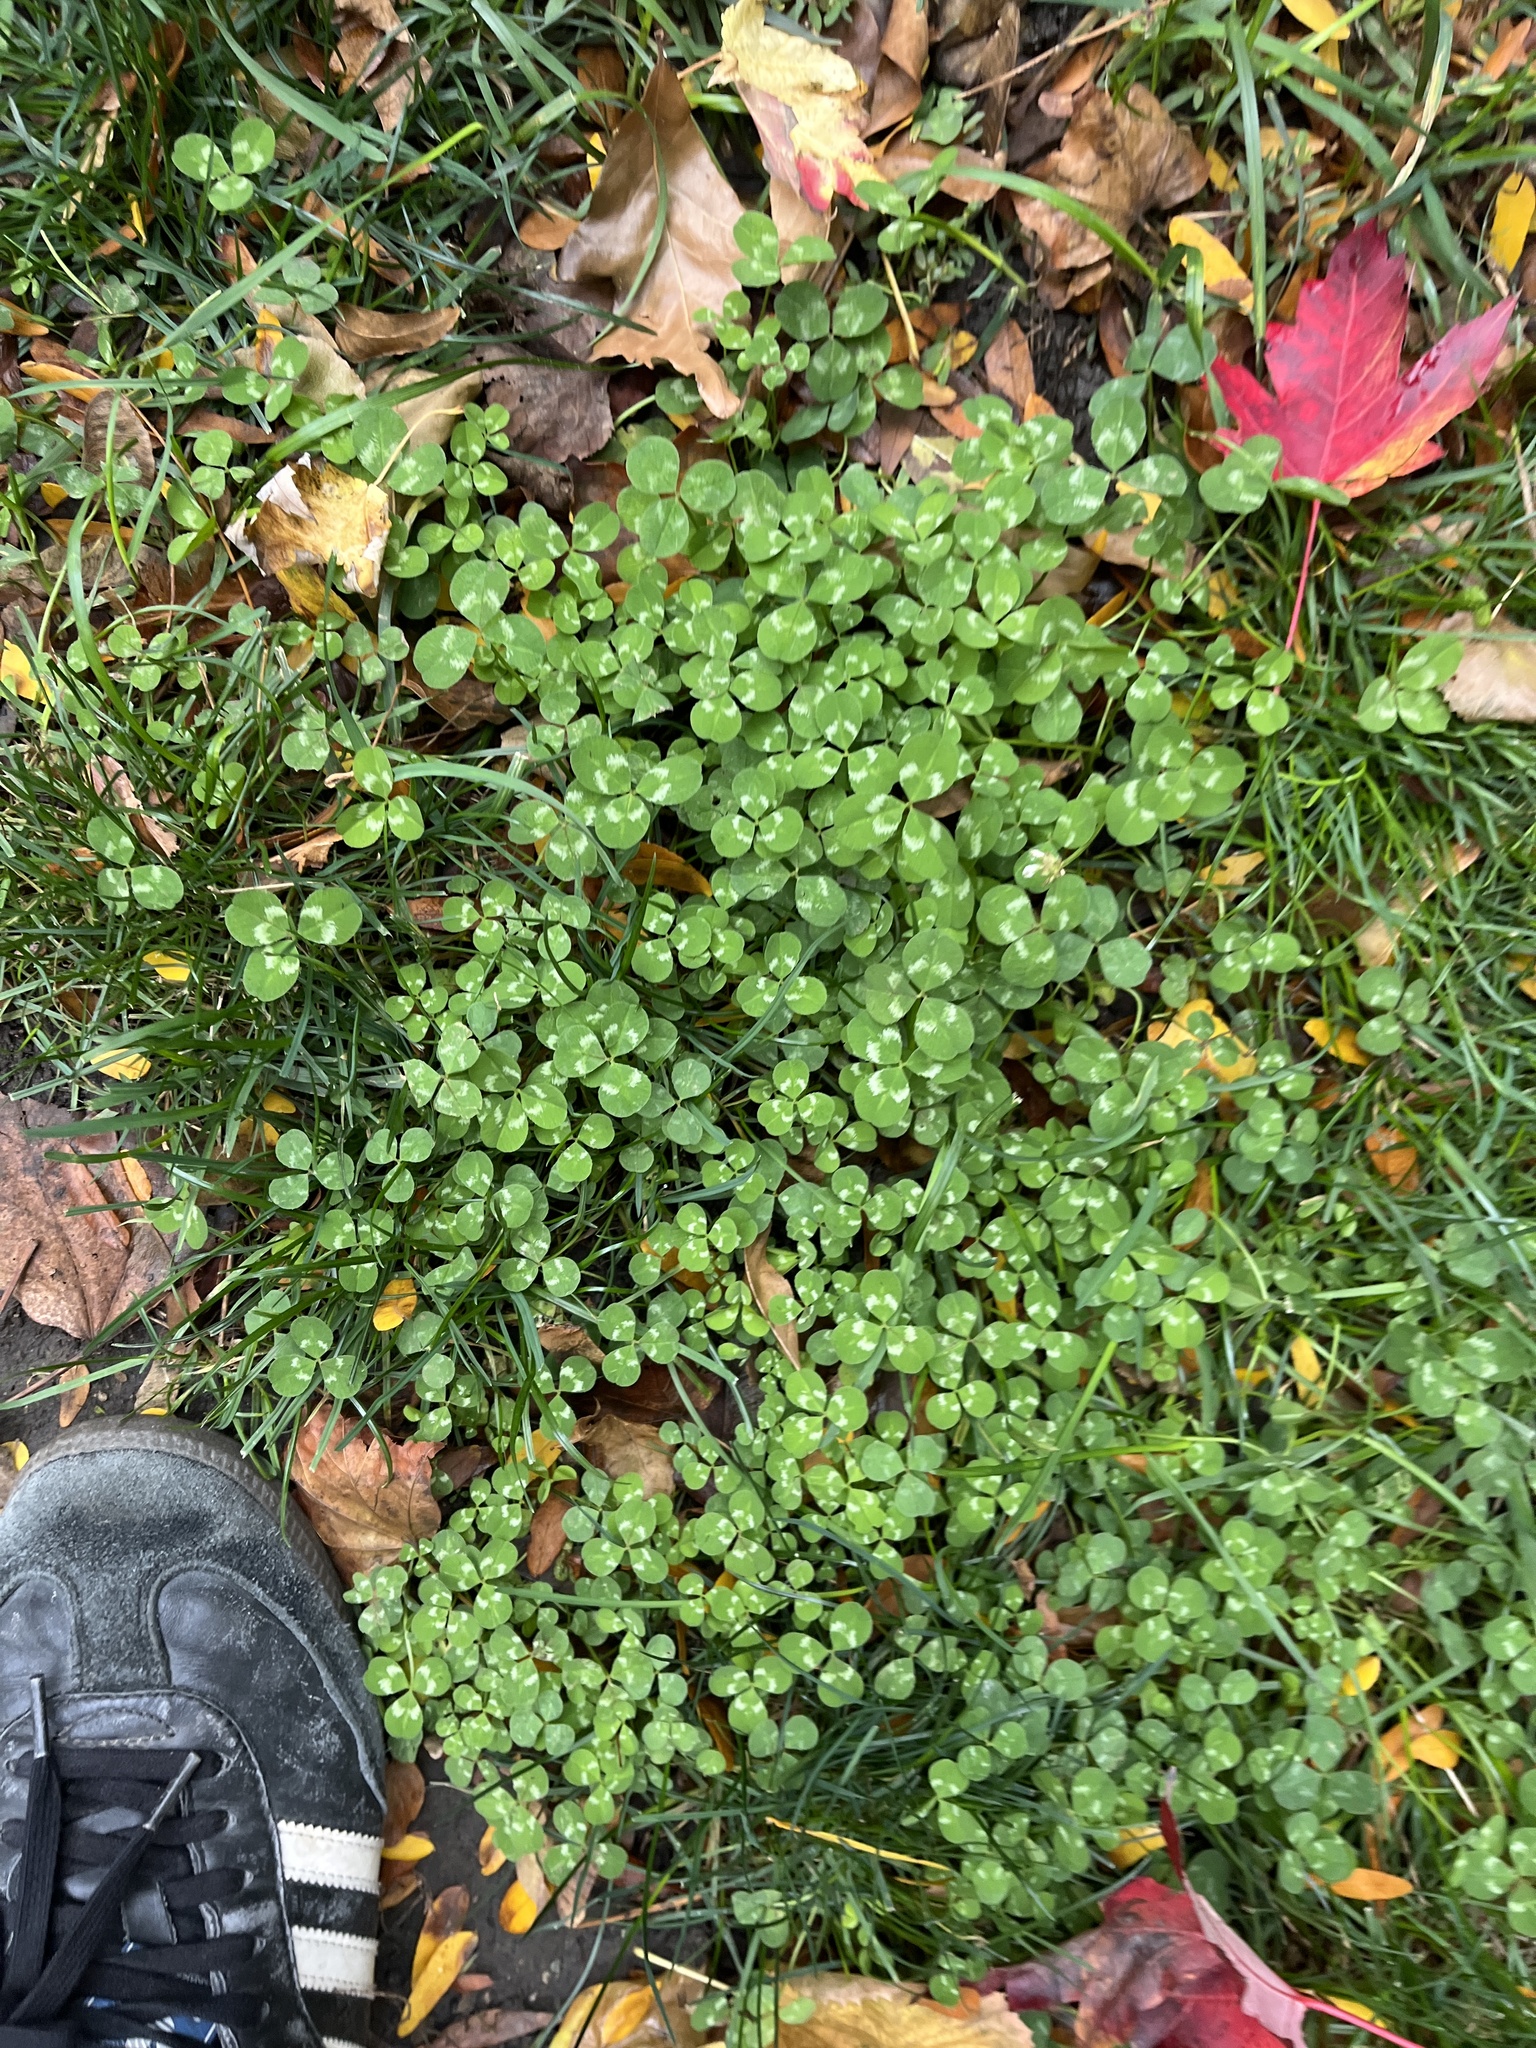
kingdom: Plantae
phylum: Tracheophyta
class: Magnoliopsida
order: Fabales
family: Fabaceae
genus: Trifolium
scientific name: Trifolium repens
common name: White clover
